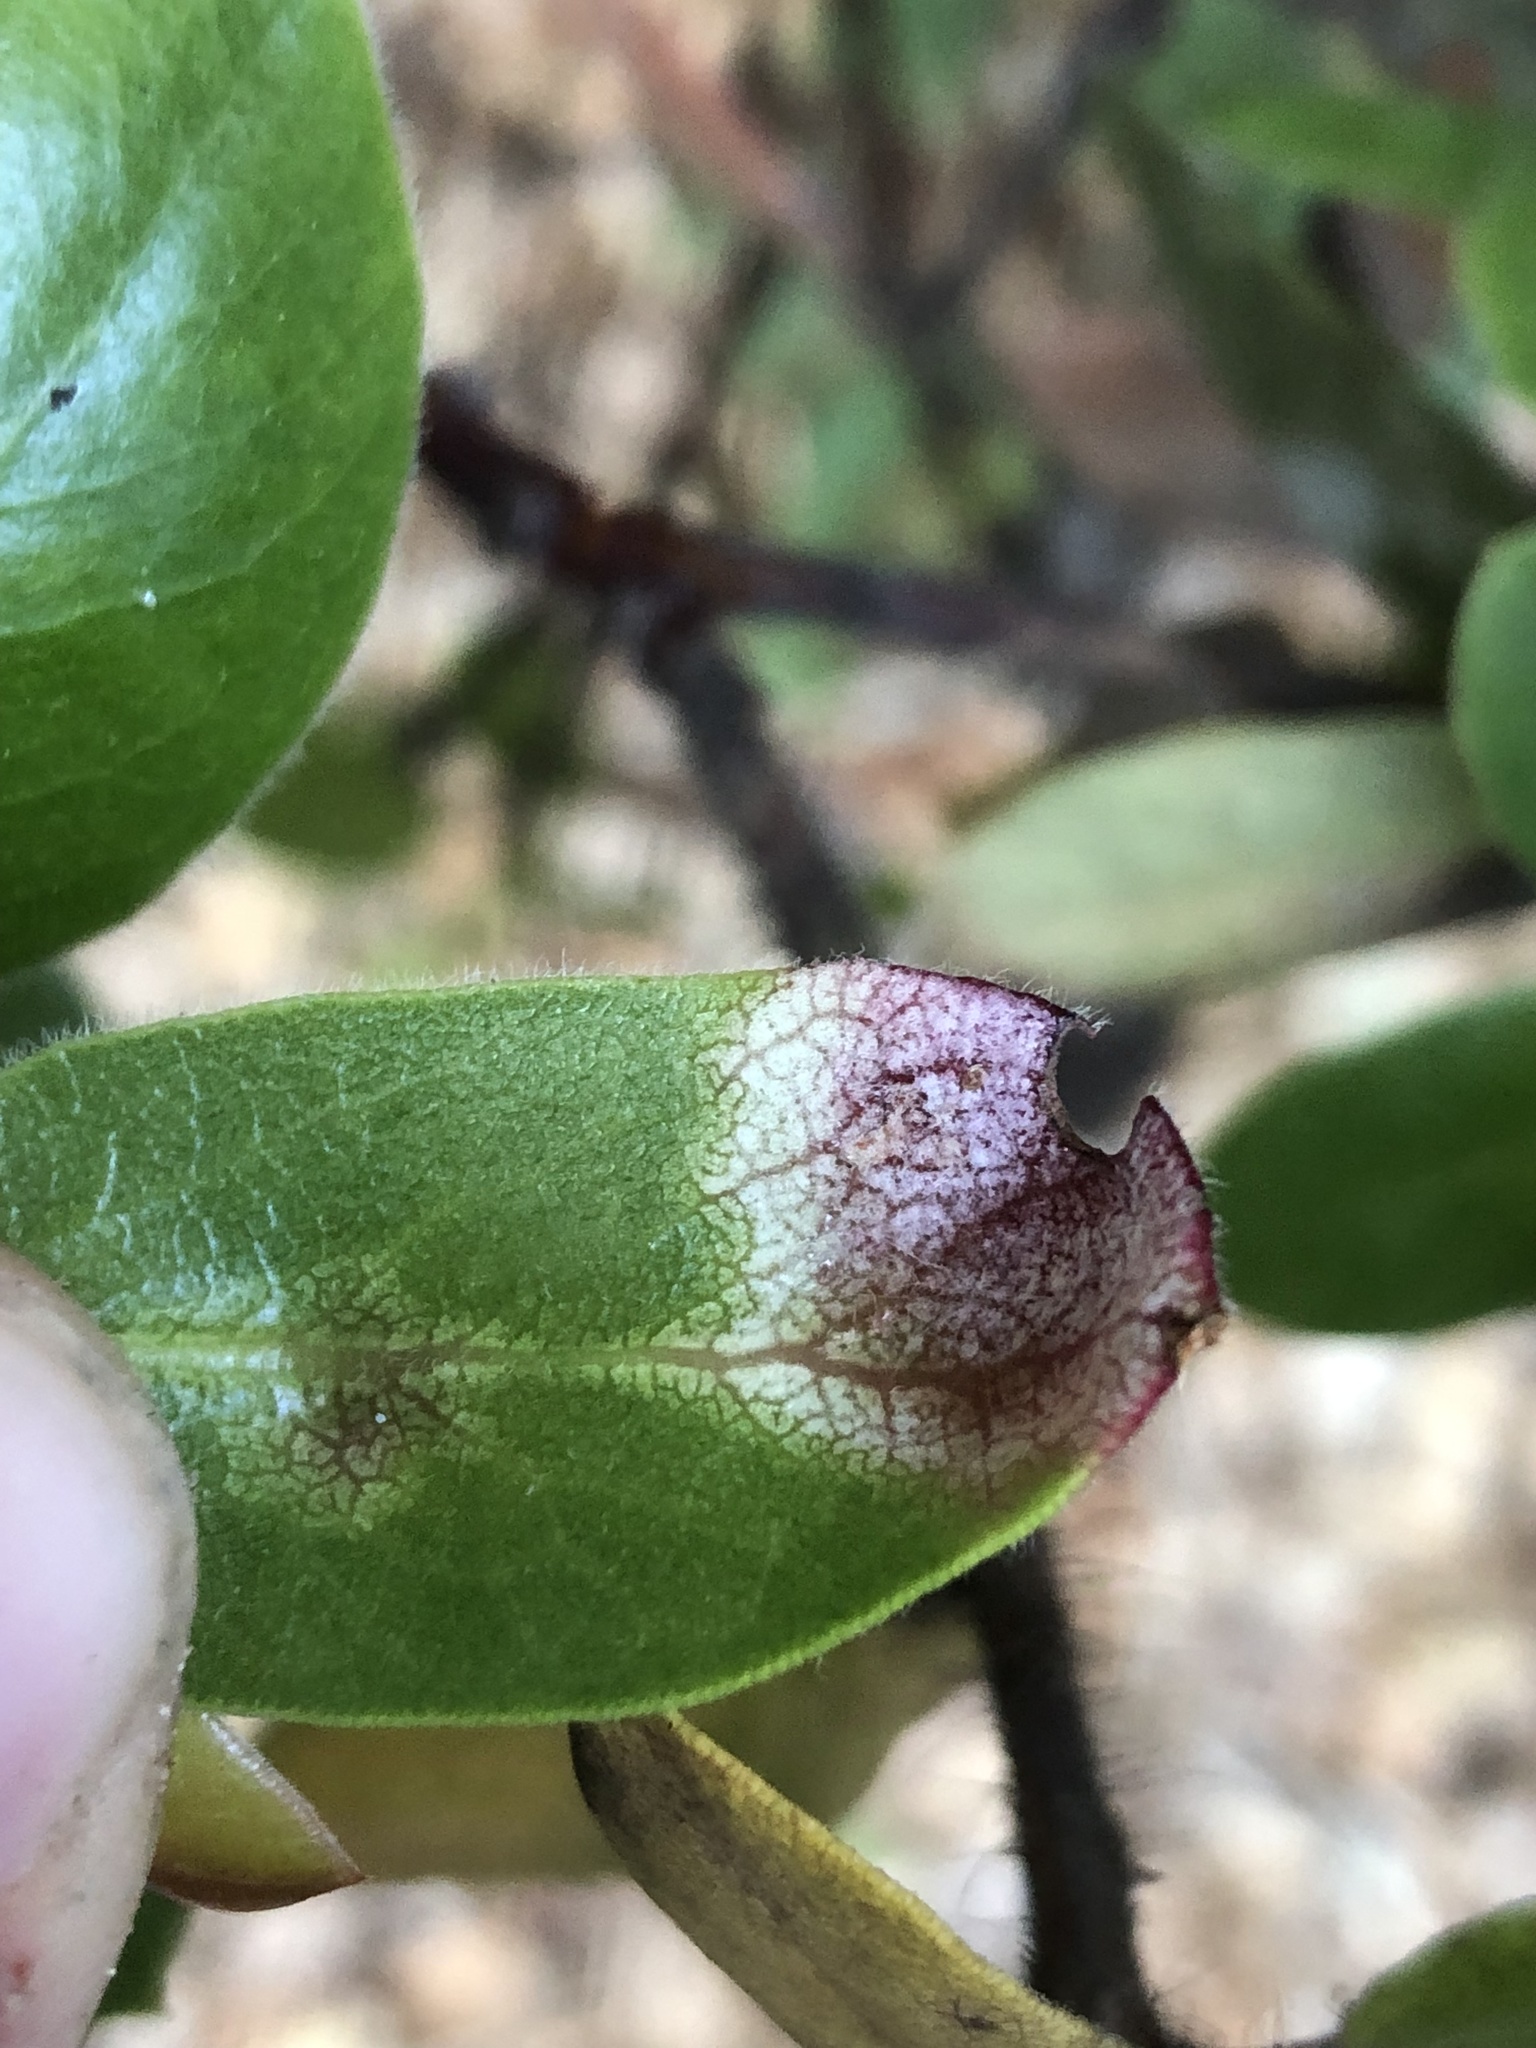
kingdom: Fungi
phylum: Basidiomycota
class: Exobasidiomycetes
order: Exobasidiales
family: Exobasidiaceae
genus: Exobasidium
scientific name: Exobasidium arctostaphyli
